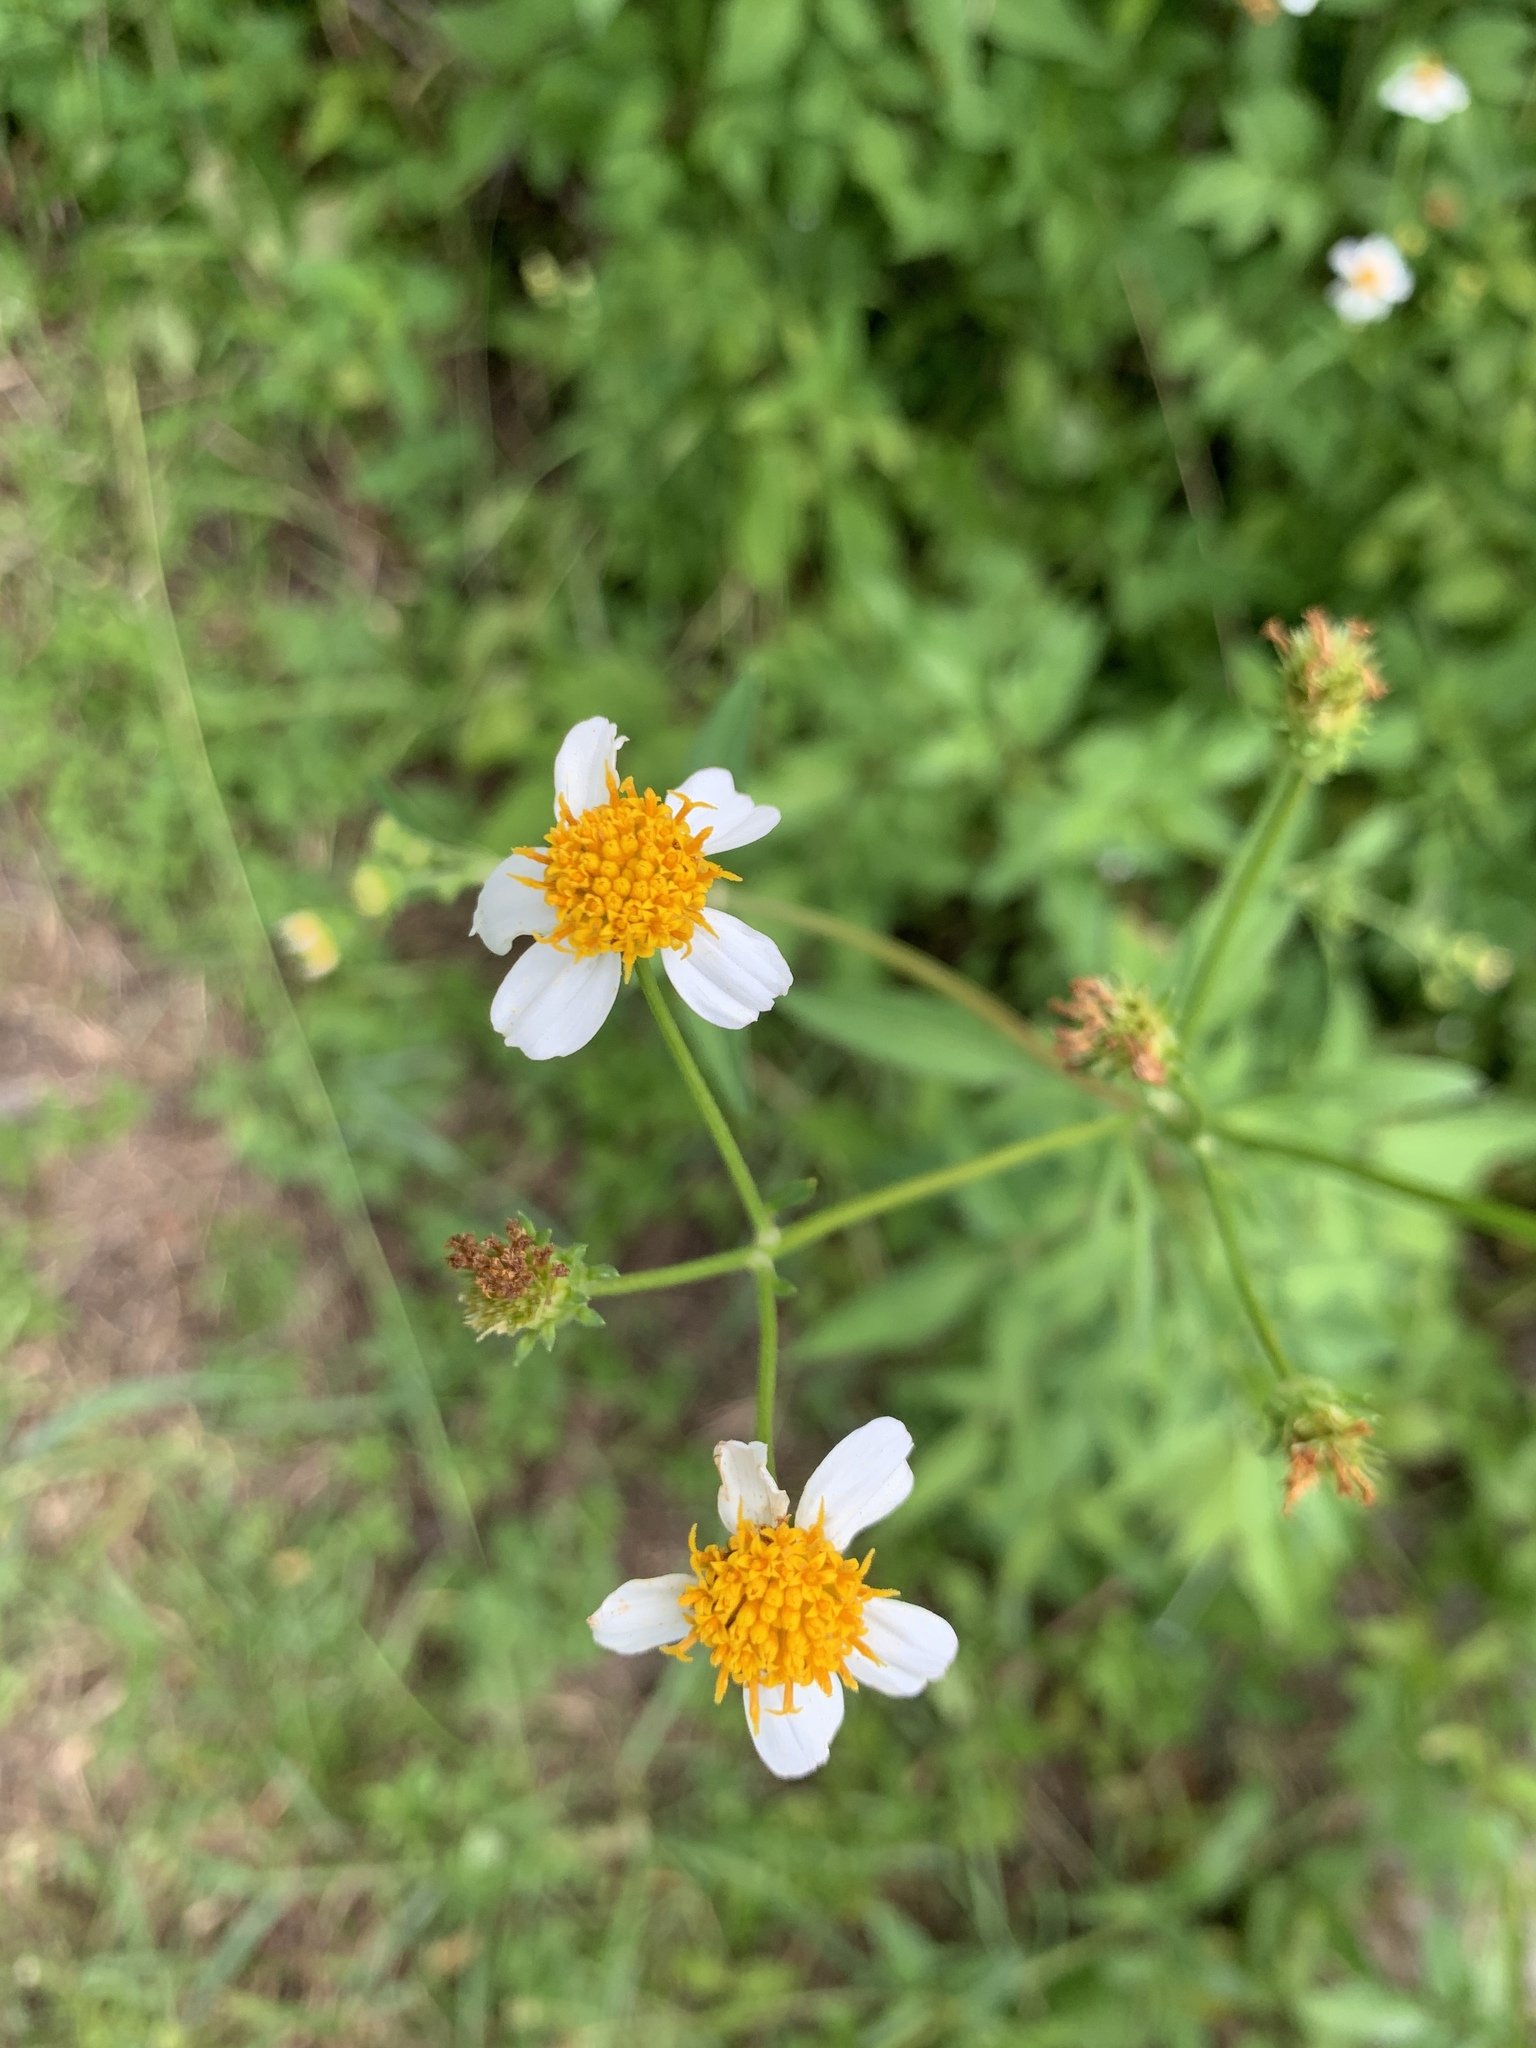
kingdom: Plantae
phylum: Tracheophyta
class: Magnoliopsida
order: Asterales
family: Asteraceae
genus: Bidens
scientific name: Bidens alba
